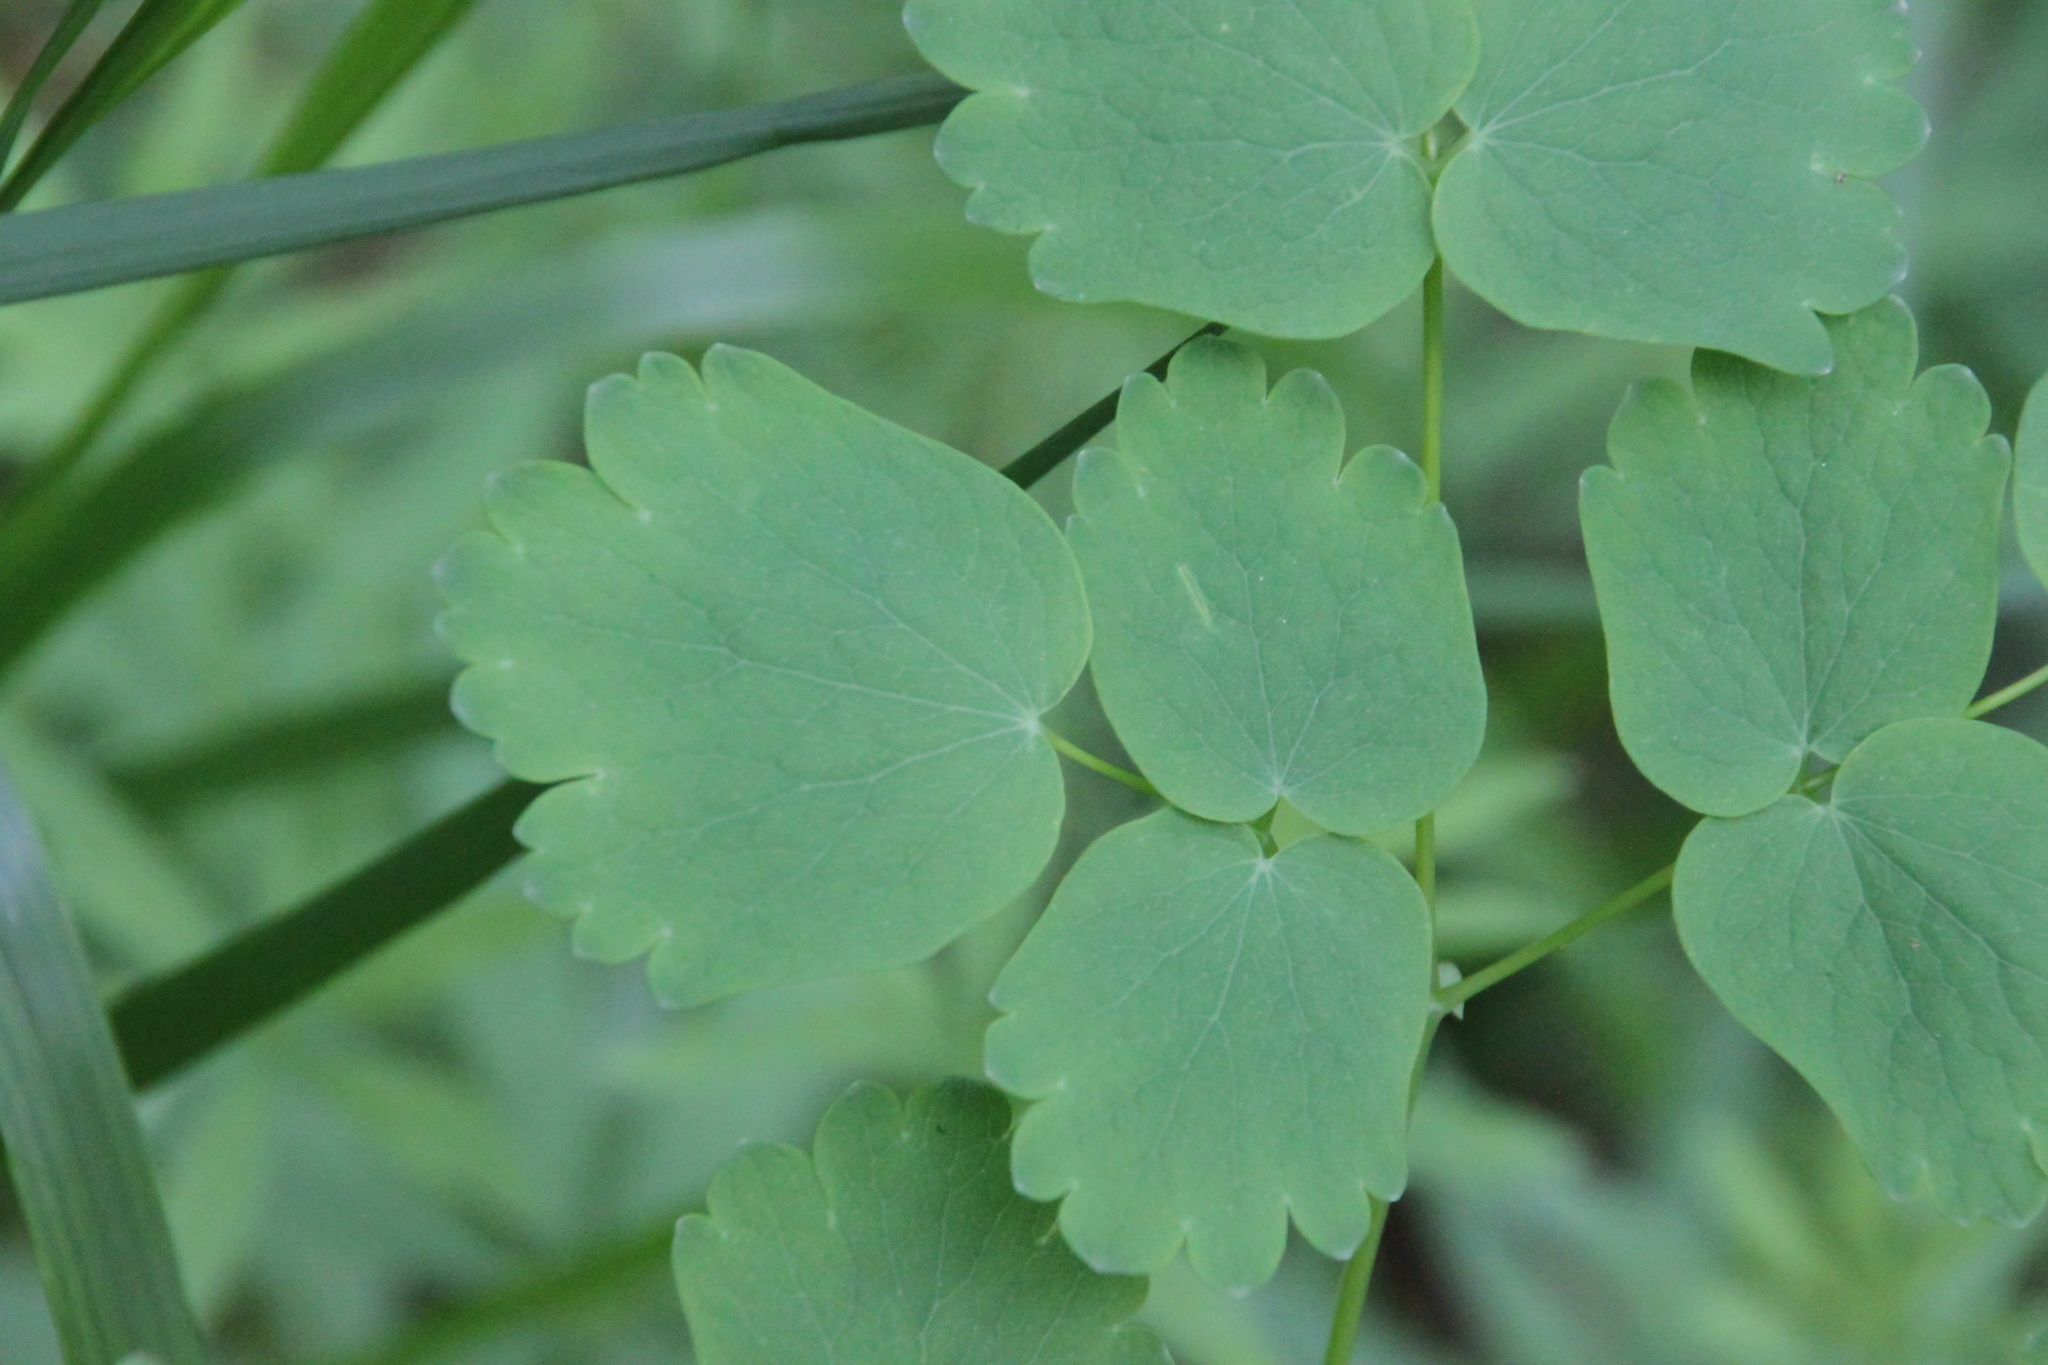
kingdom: Plantae
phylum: Tracheophyta
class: Magnoliopsida
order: Ranunculales
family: Ranunculaceae
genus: Thalictrum
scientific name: Thalictrum aquilegiifolium
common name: French meadow-rue
